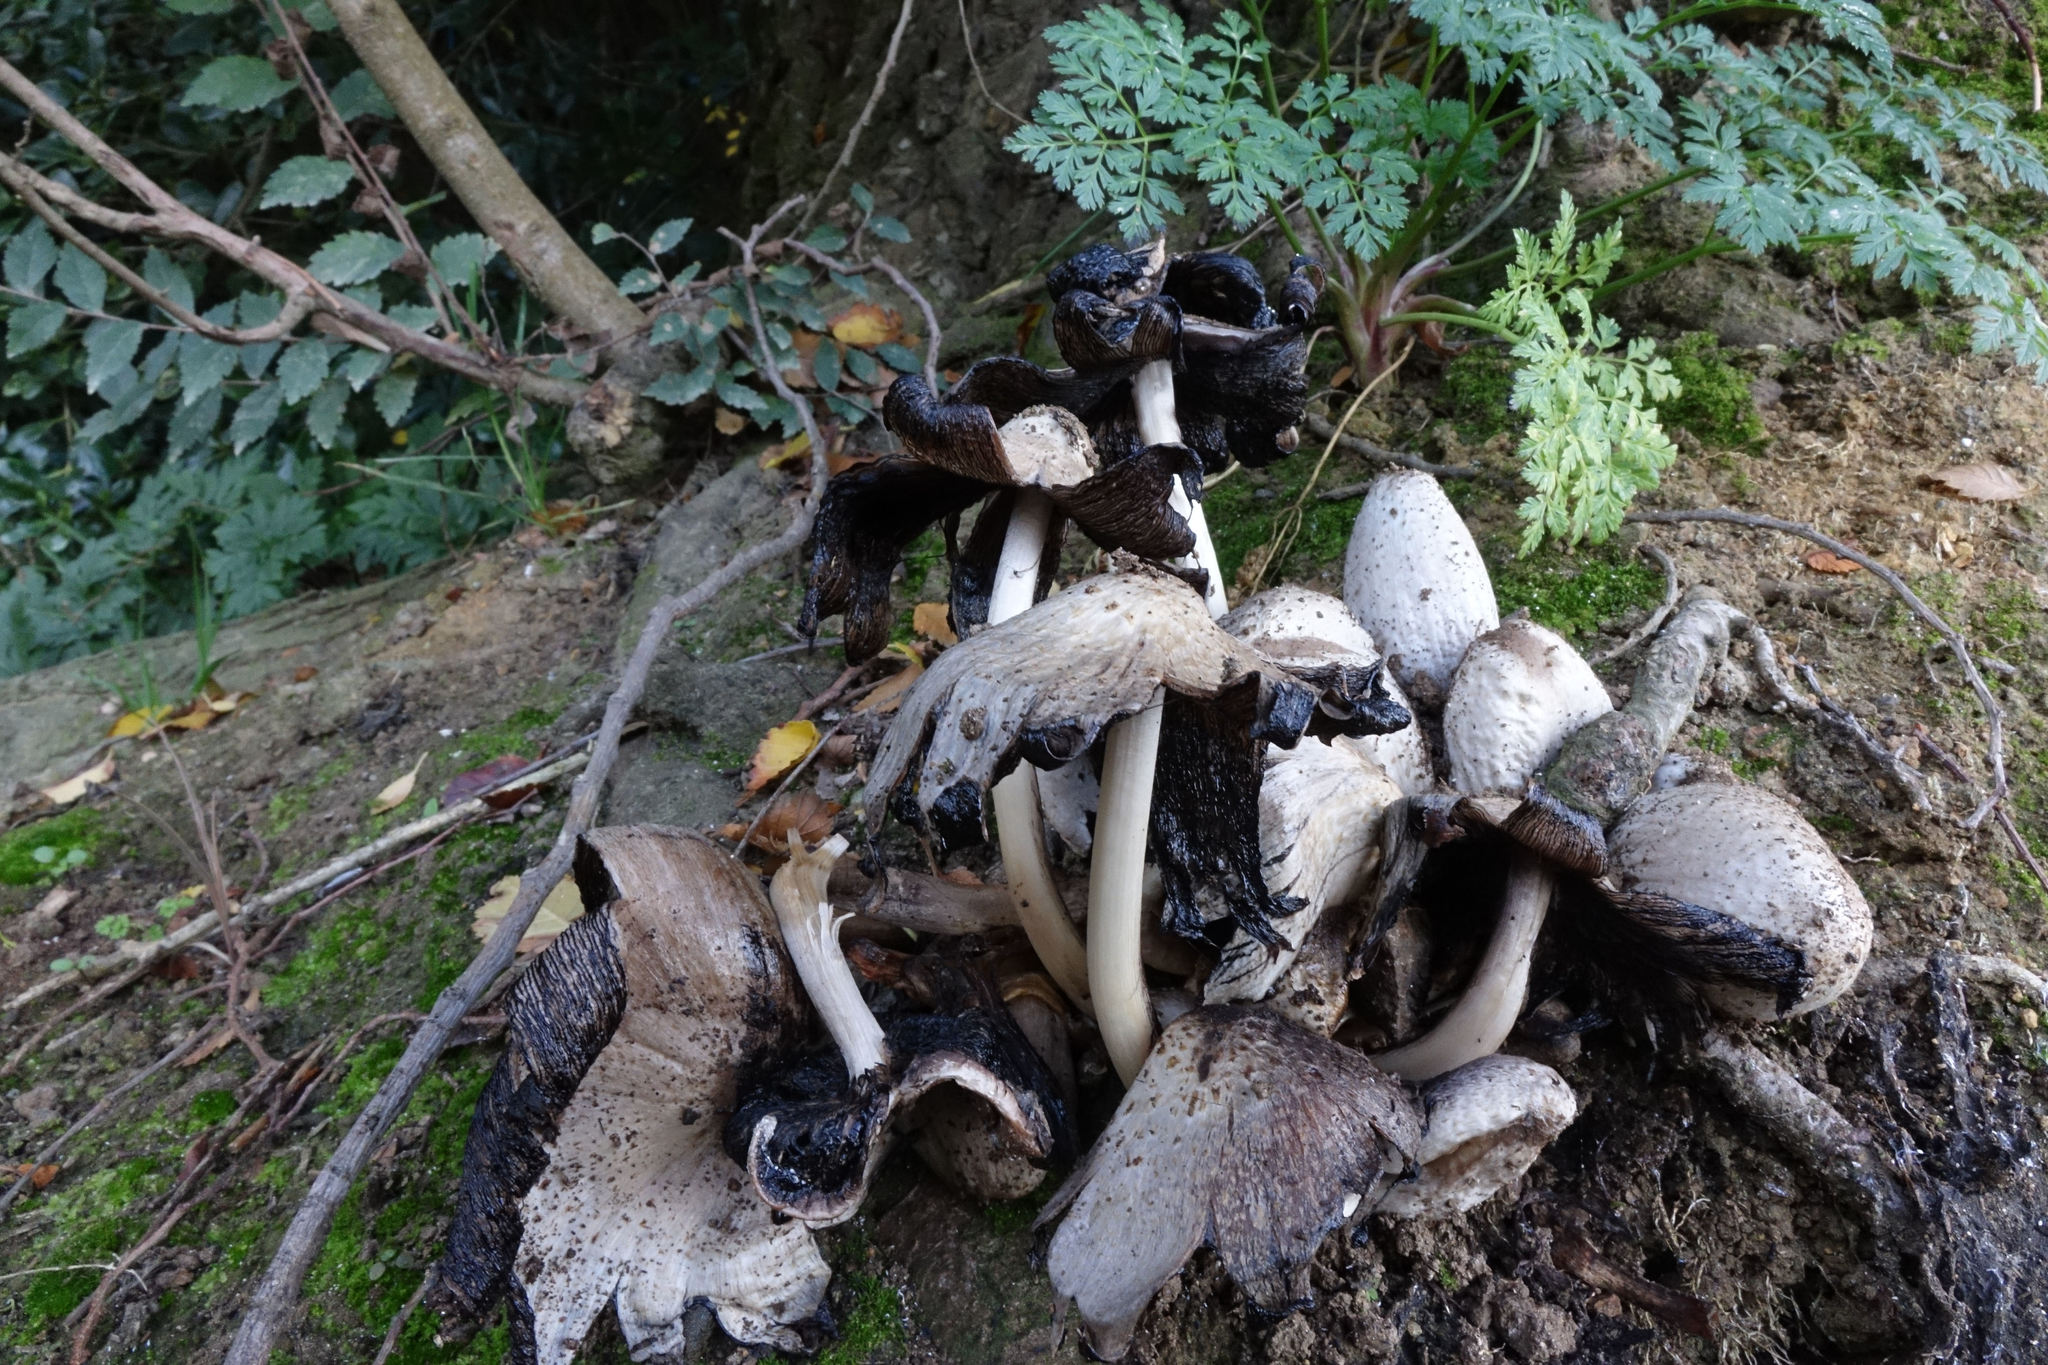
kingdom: Fungi
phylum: Basidiomycota
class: Agaricomycetes
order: Agaricales
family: Psathyrellaceae
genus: Coprinopsis
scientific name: Coprinopsis atramentaria
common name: Common ink-cap
